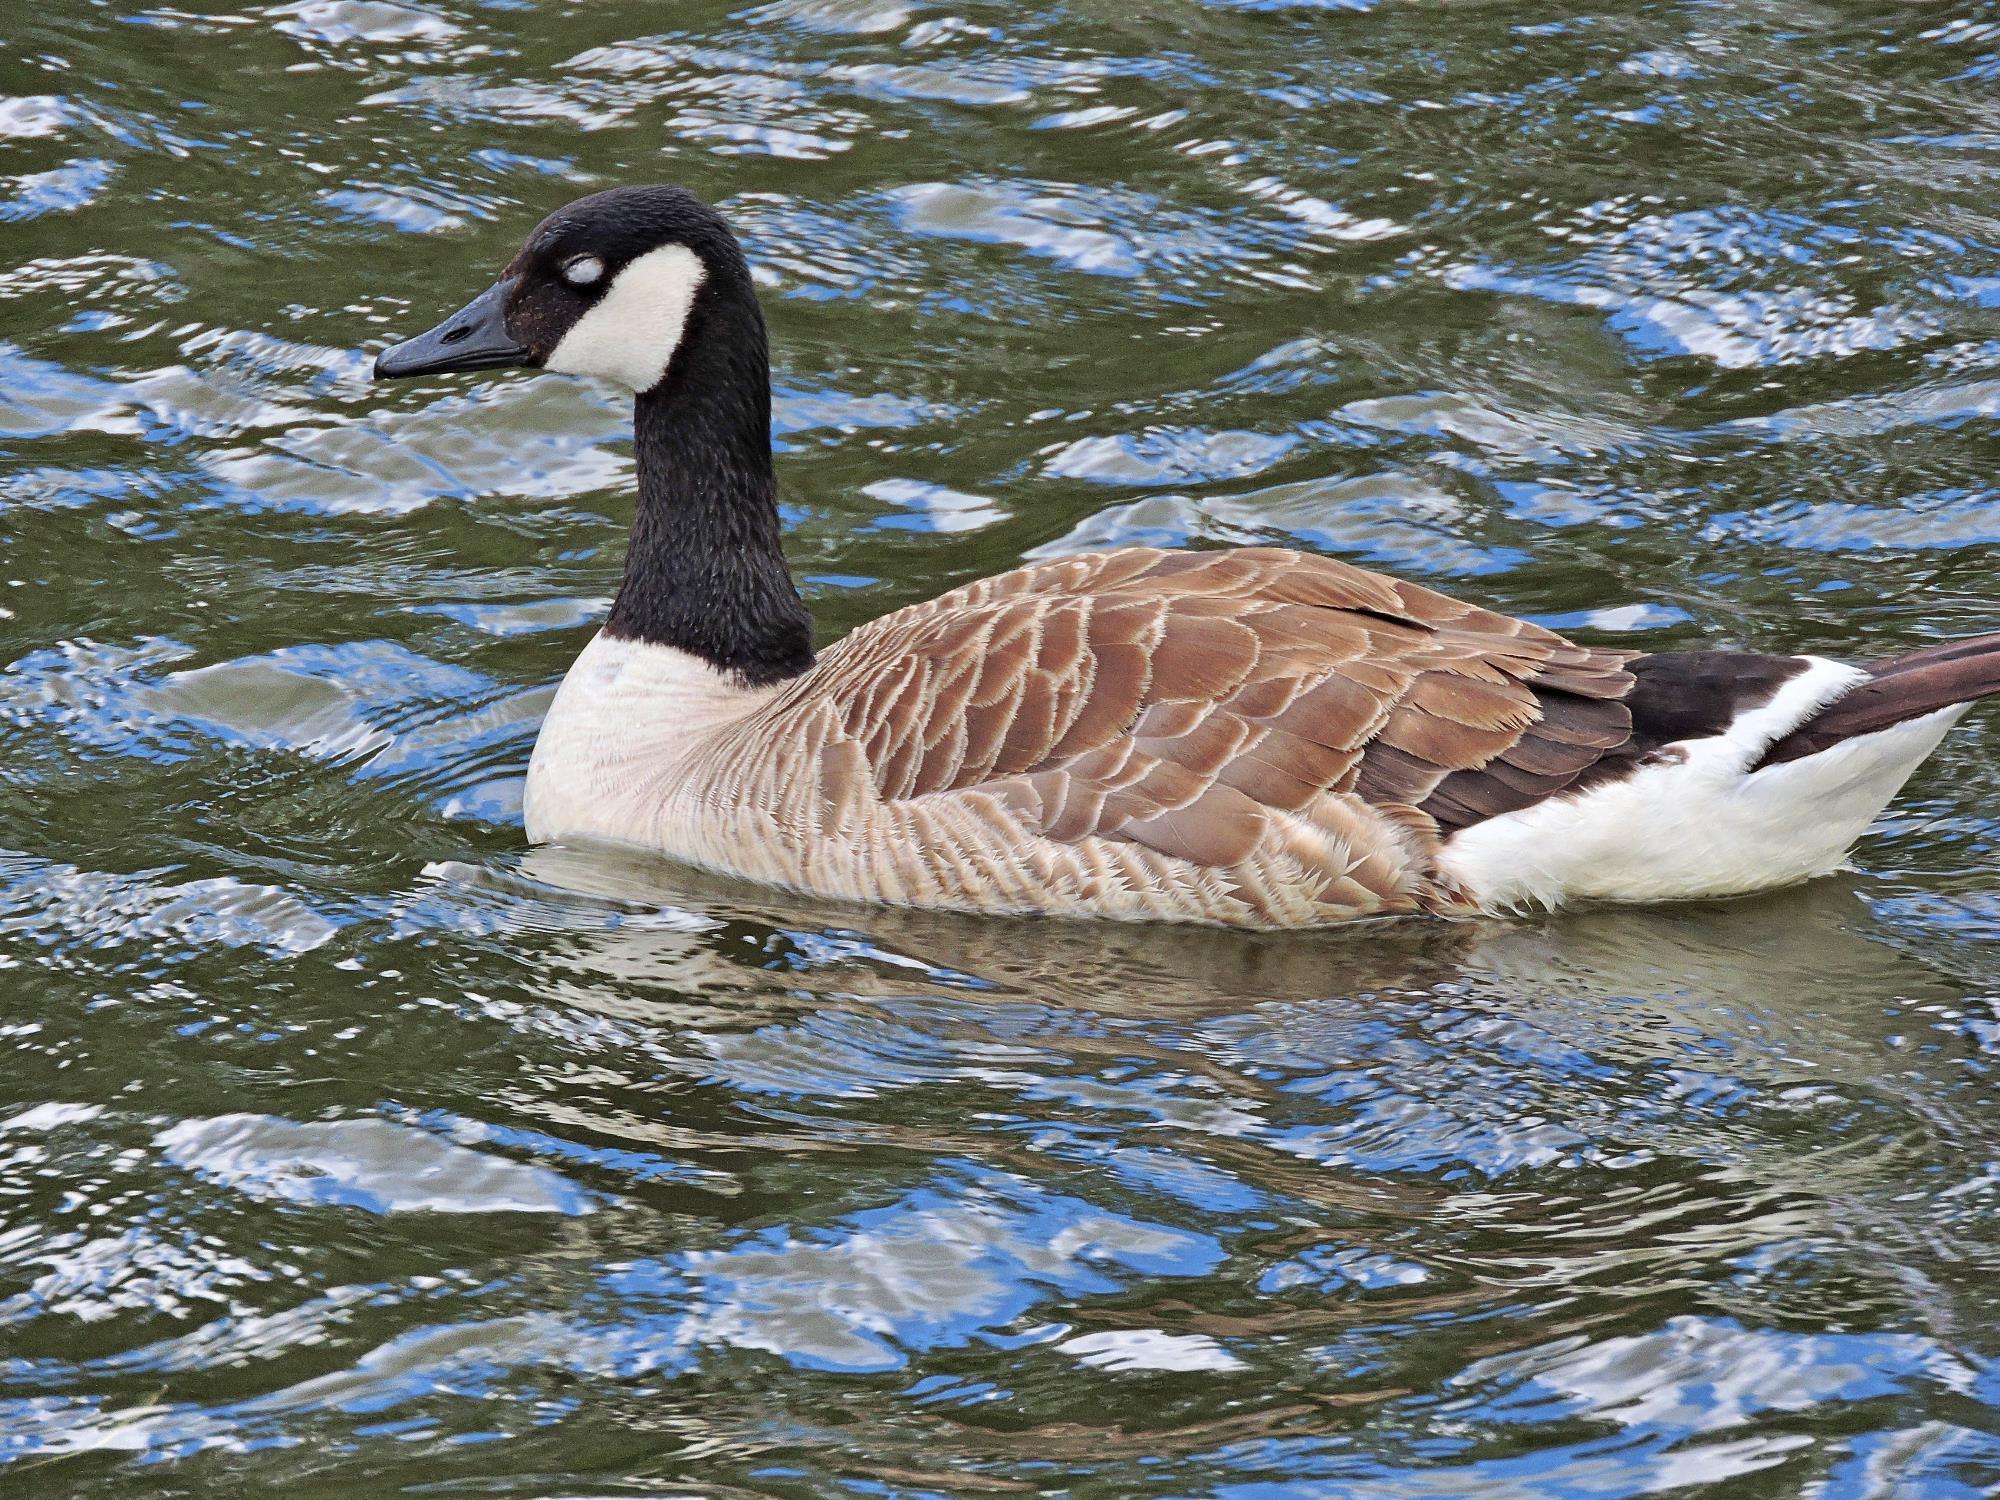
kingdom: Animalia
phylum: Chordata
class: Aves
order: Anseriformes
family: Anatidae
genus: Branta
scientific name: Branta canadensis
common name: Canada goose
